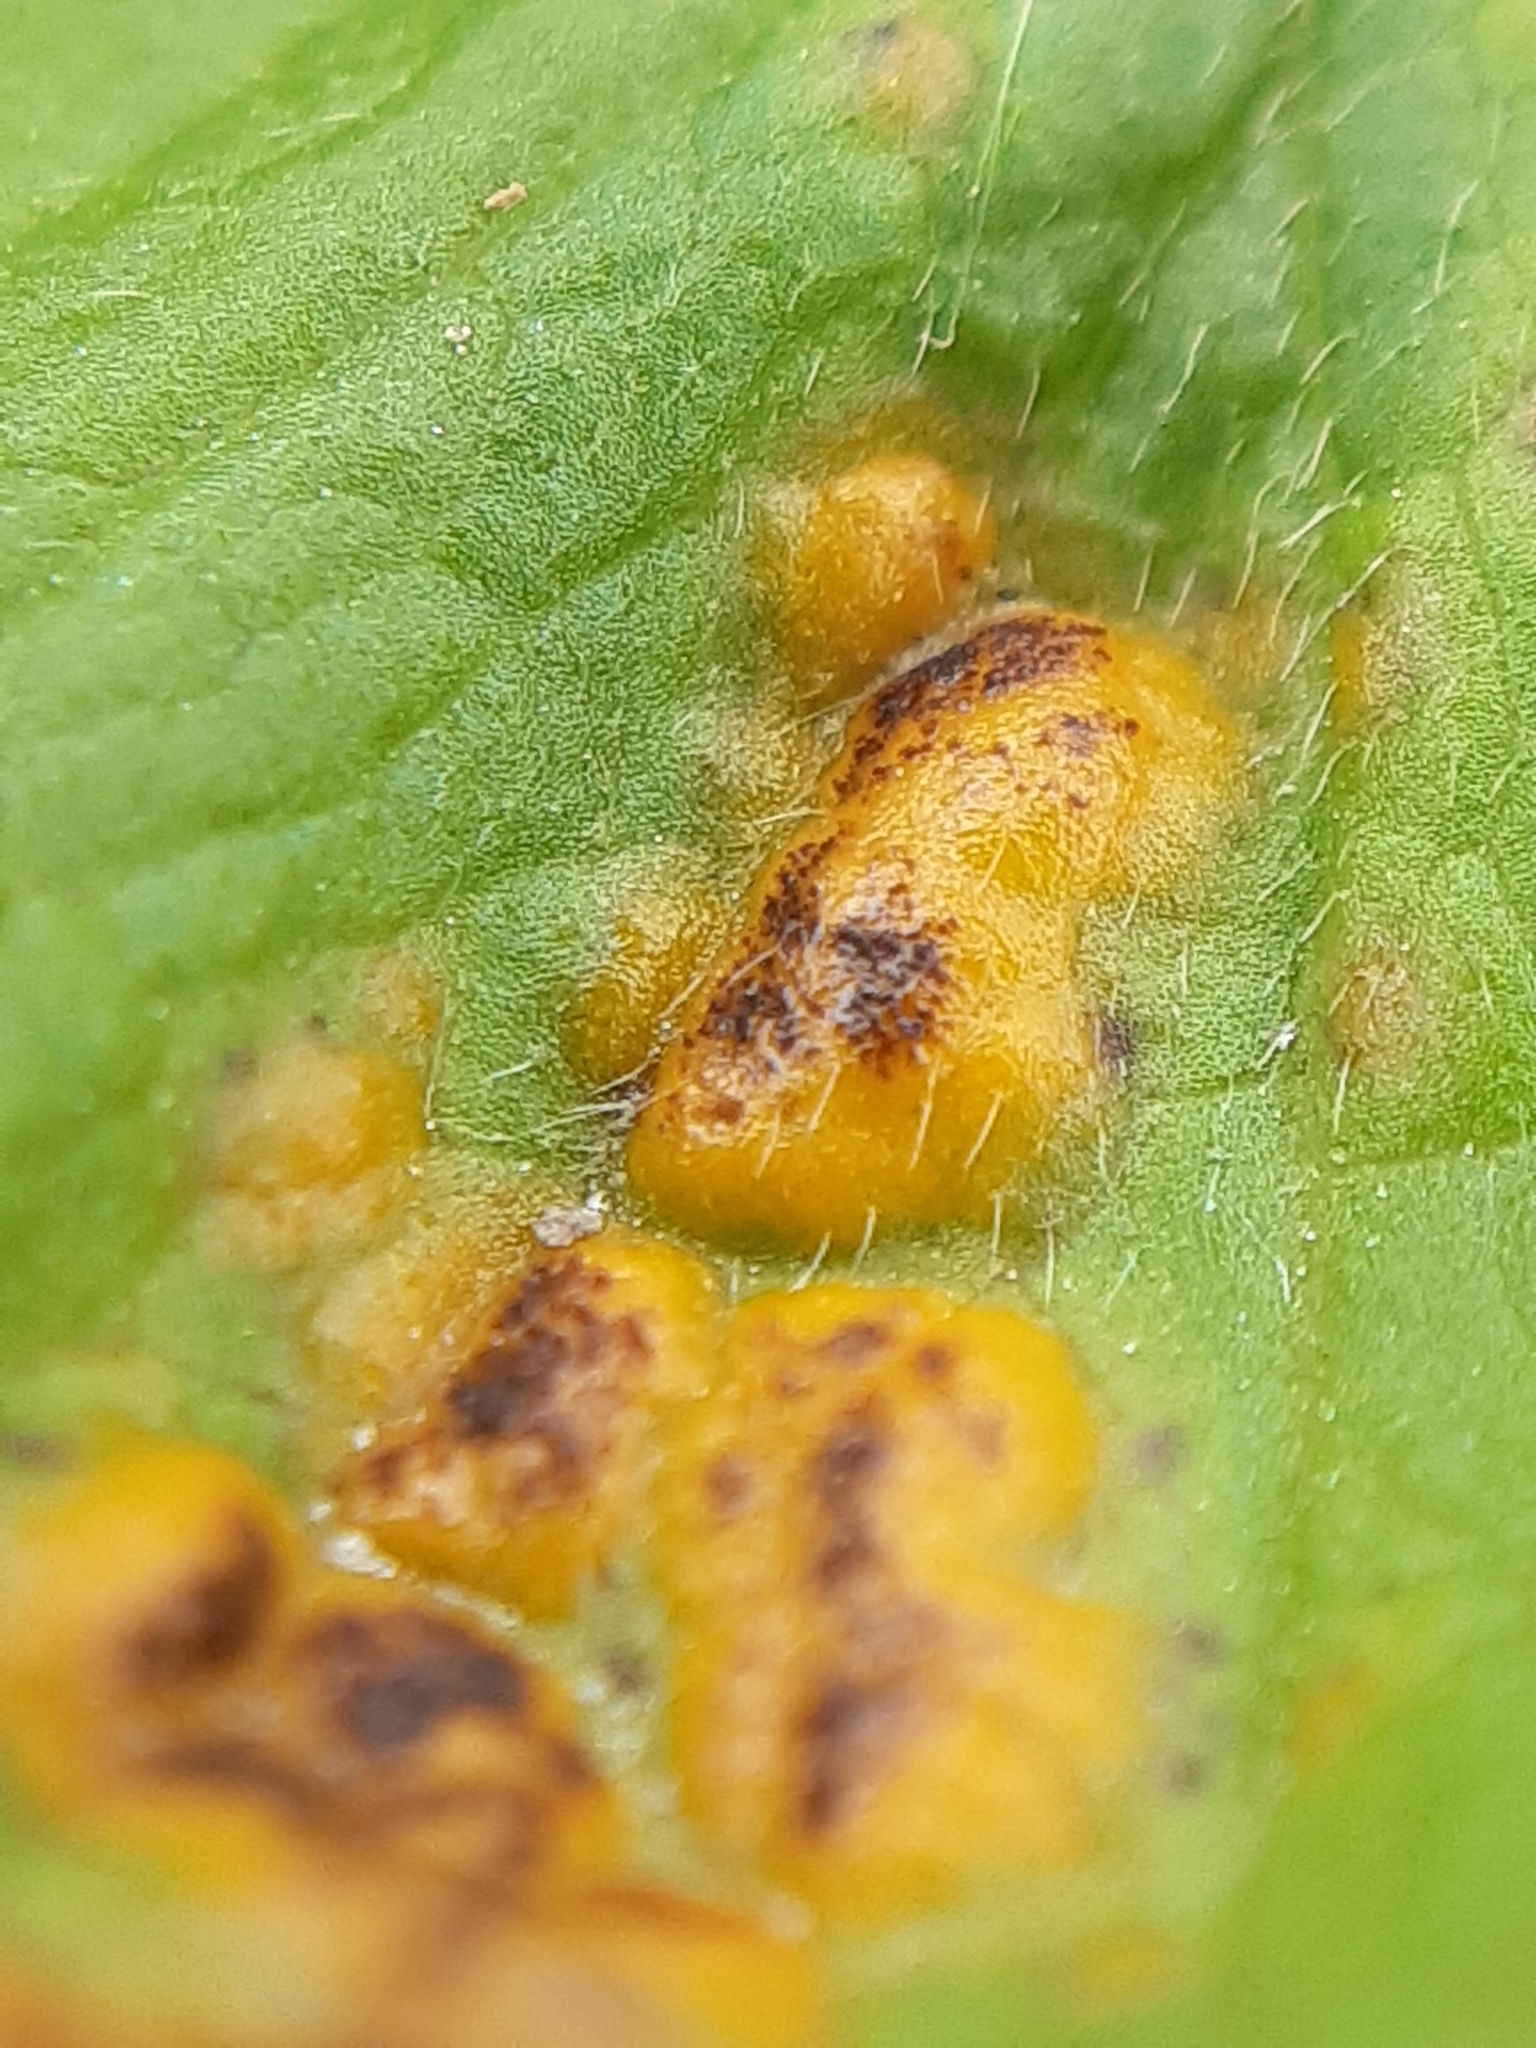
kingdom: Fungi
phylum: Basidiomycota
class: Pucciniomycetes
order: Pucciniales
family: Pucciniaceae
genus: Puccinia
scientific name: Puccinia ustalis
